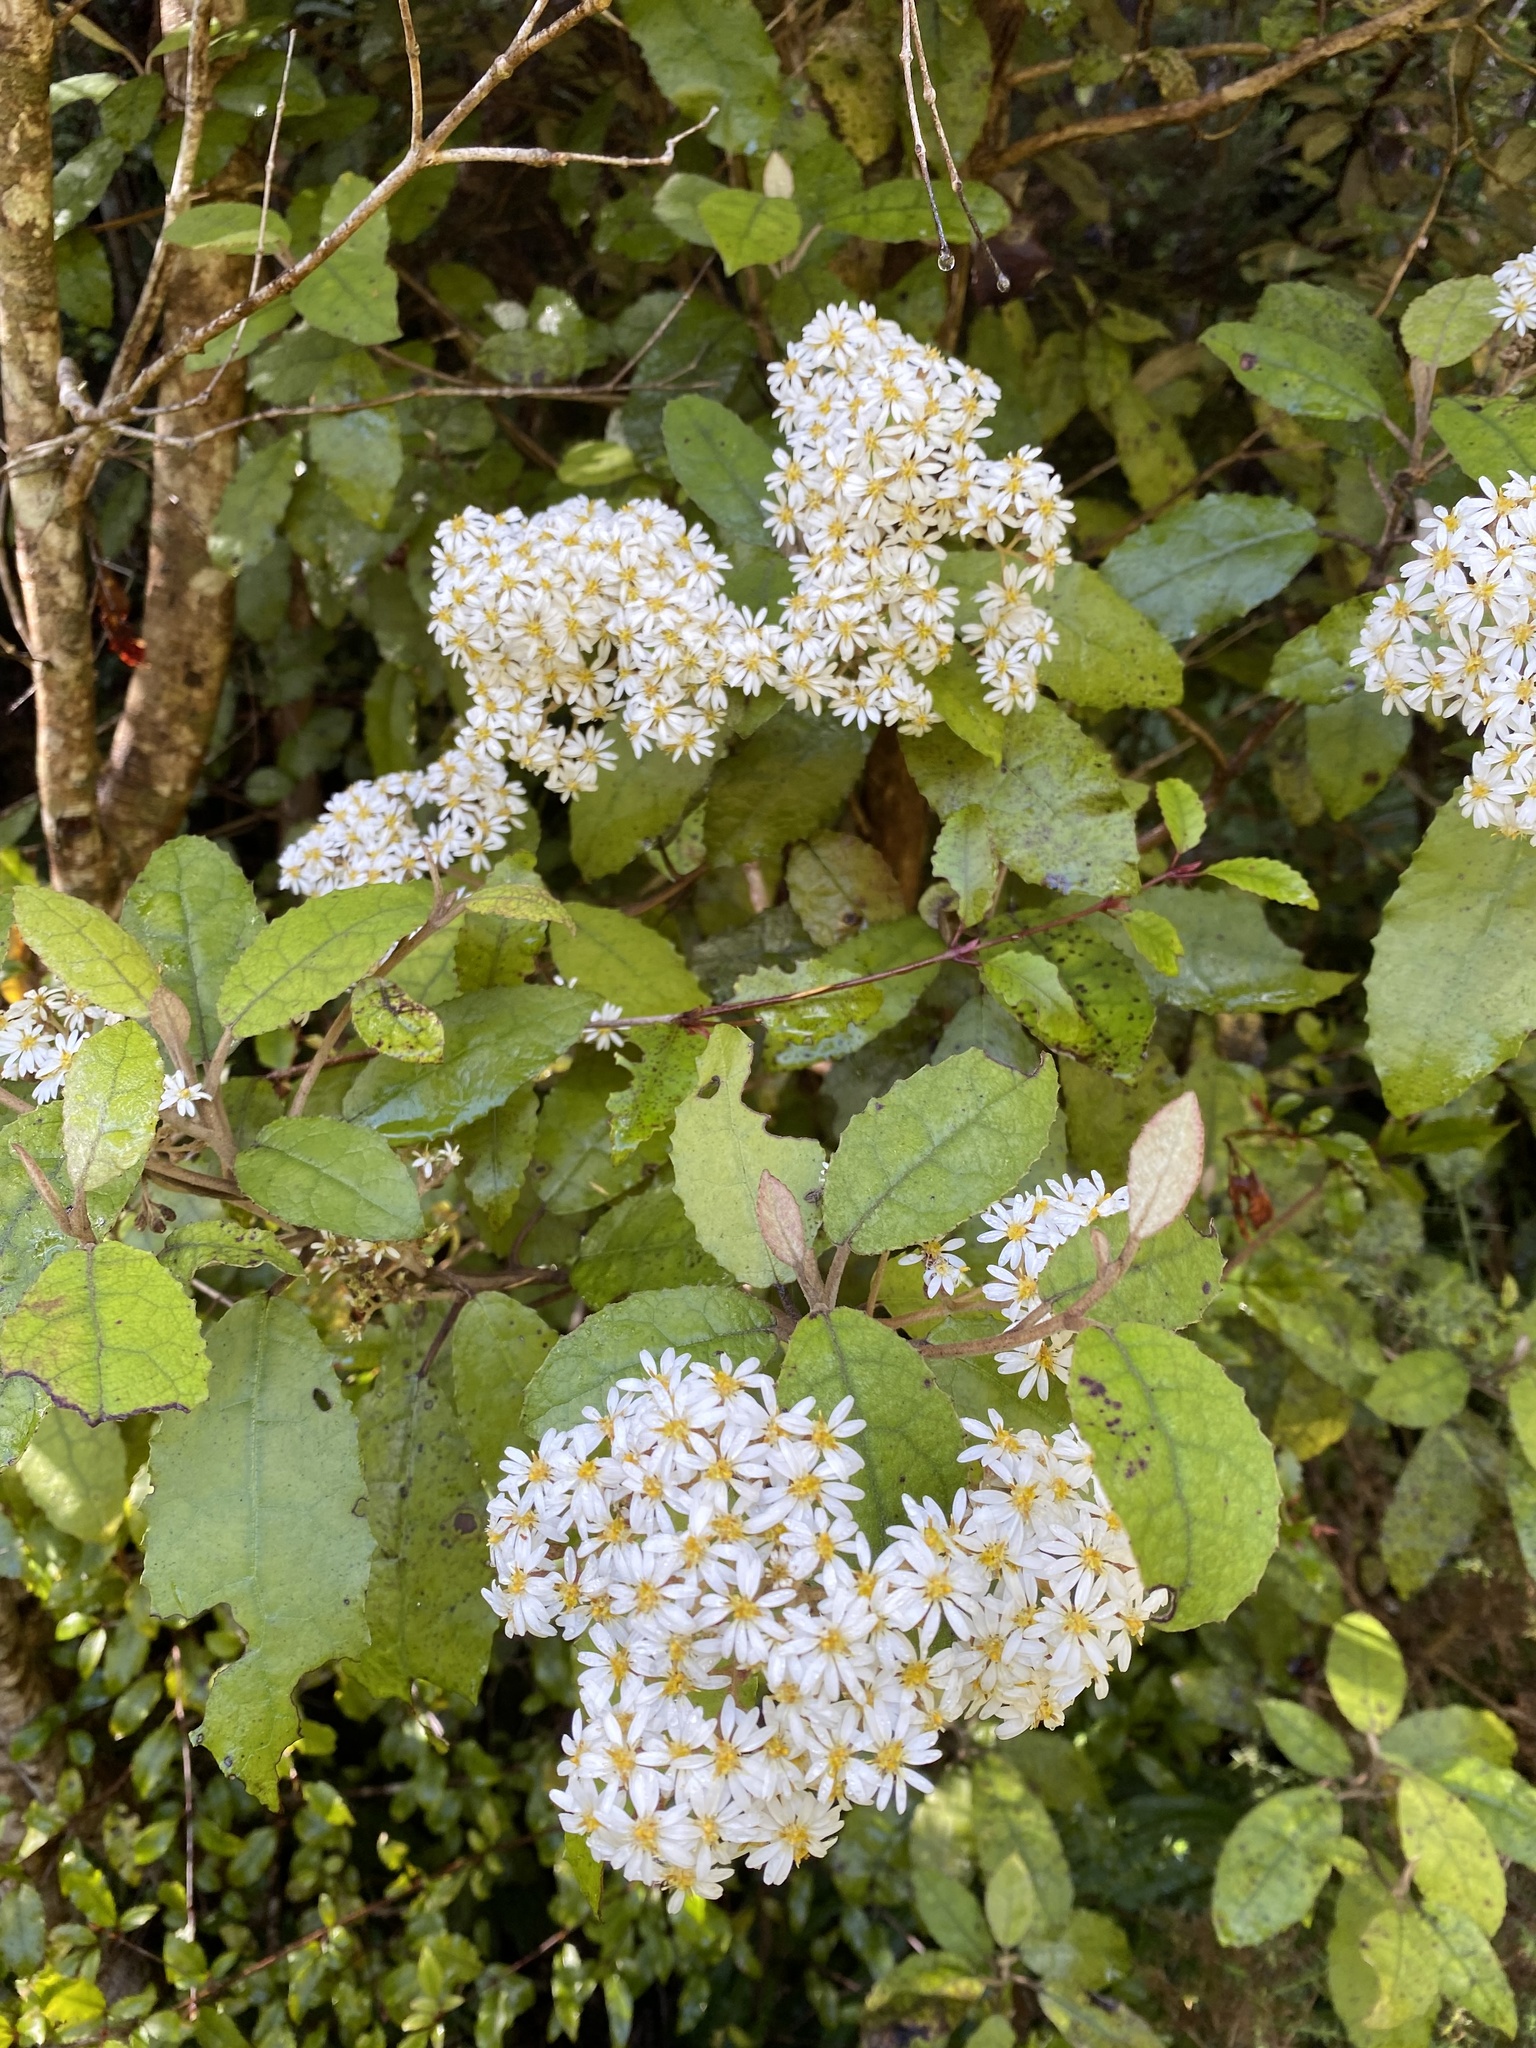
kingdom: Plantae
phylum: Tracheophyta
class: Magnoliopsida
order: Asterales
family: Asteraceae
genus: Olearia
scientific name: Olearia rani
